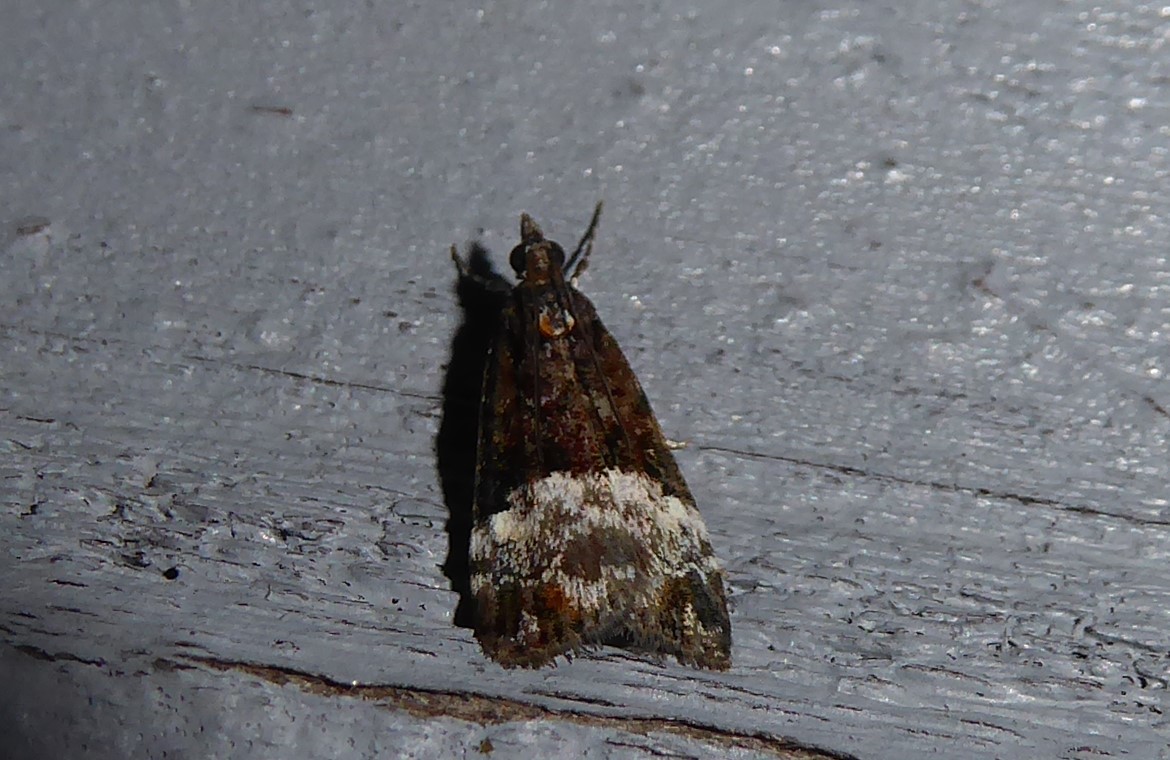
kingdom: Animalia
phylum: Arthropoda
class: Insecta
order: Lepidoptera
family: Crambidae
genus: Scoparia
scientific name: Scoparia minusculalis
